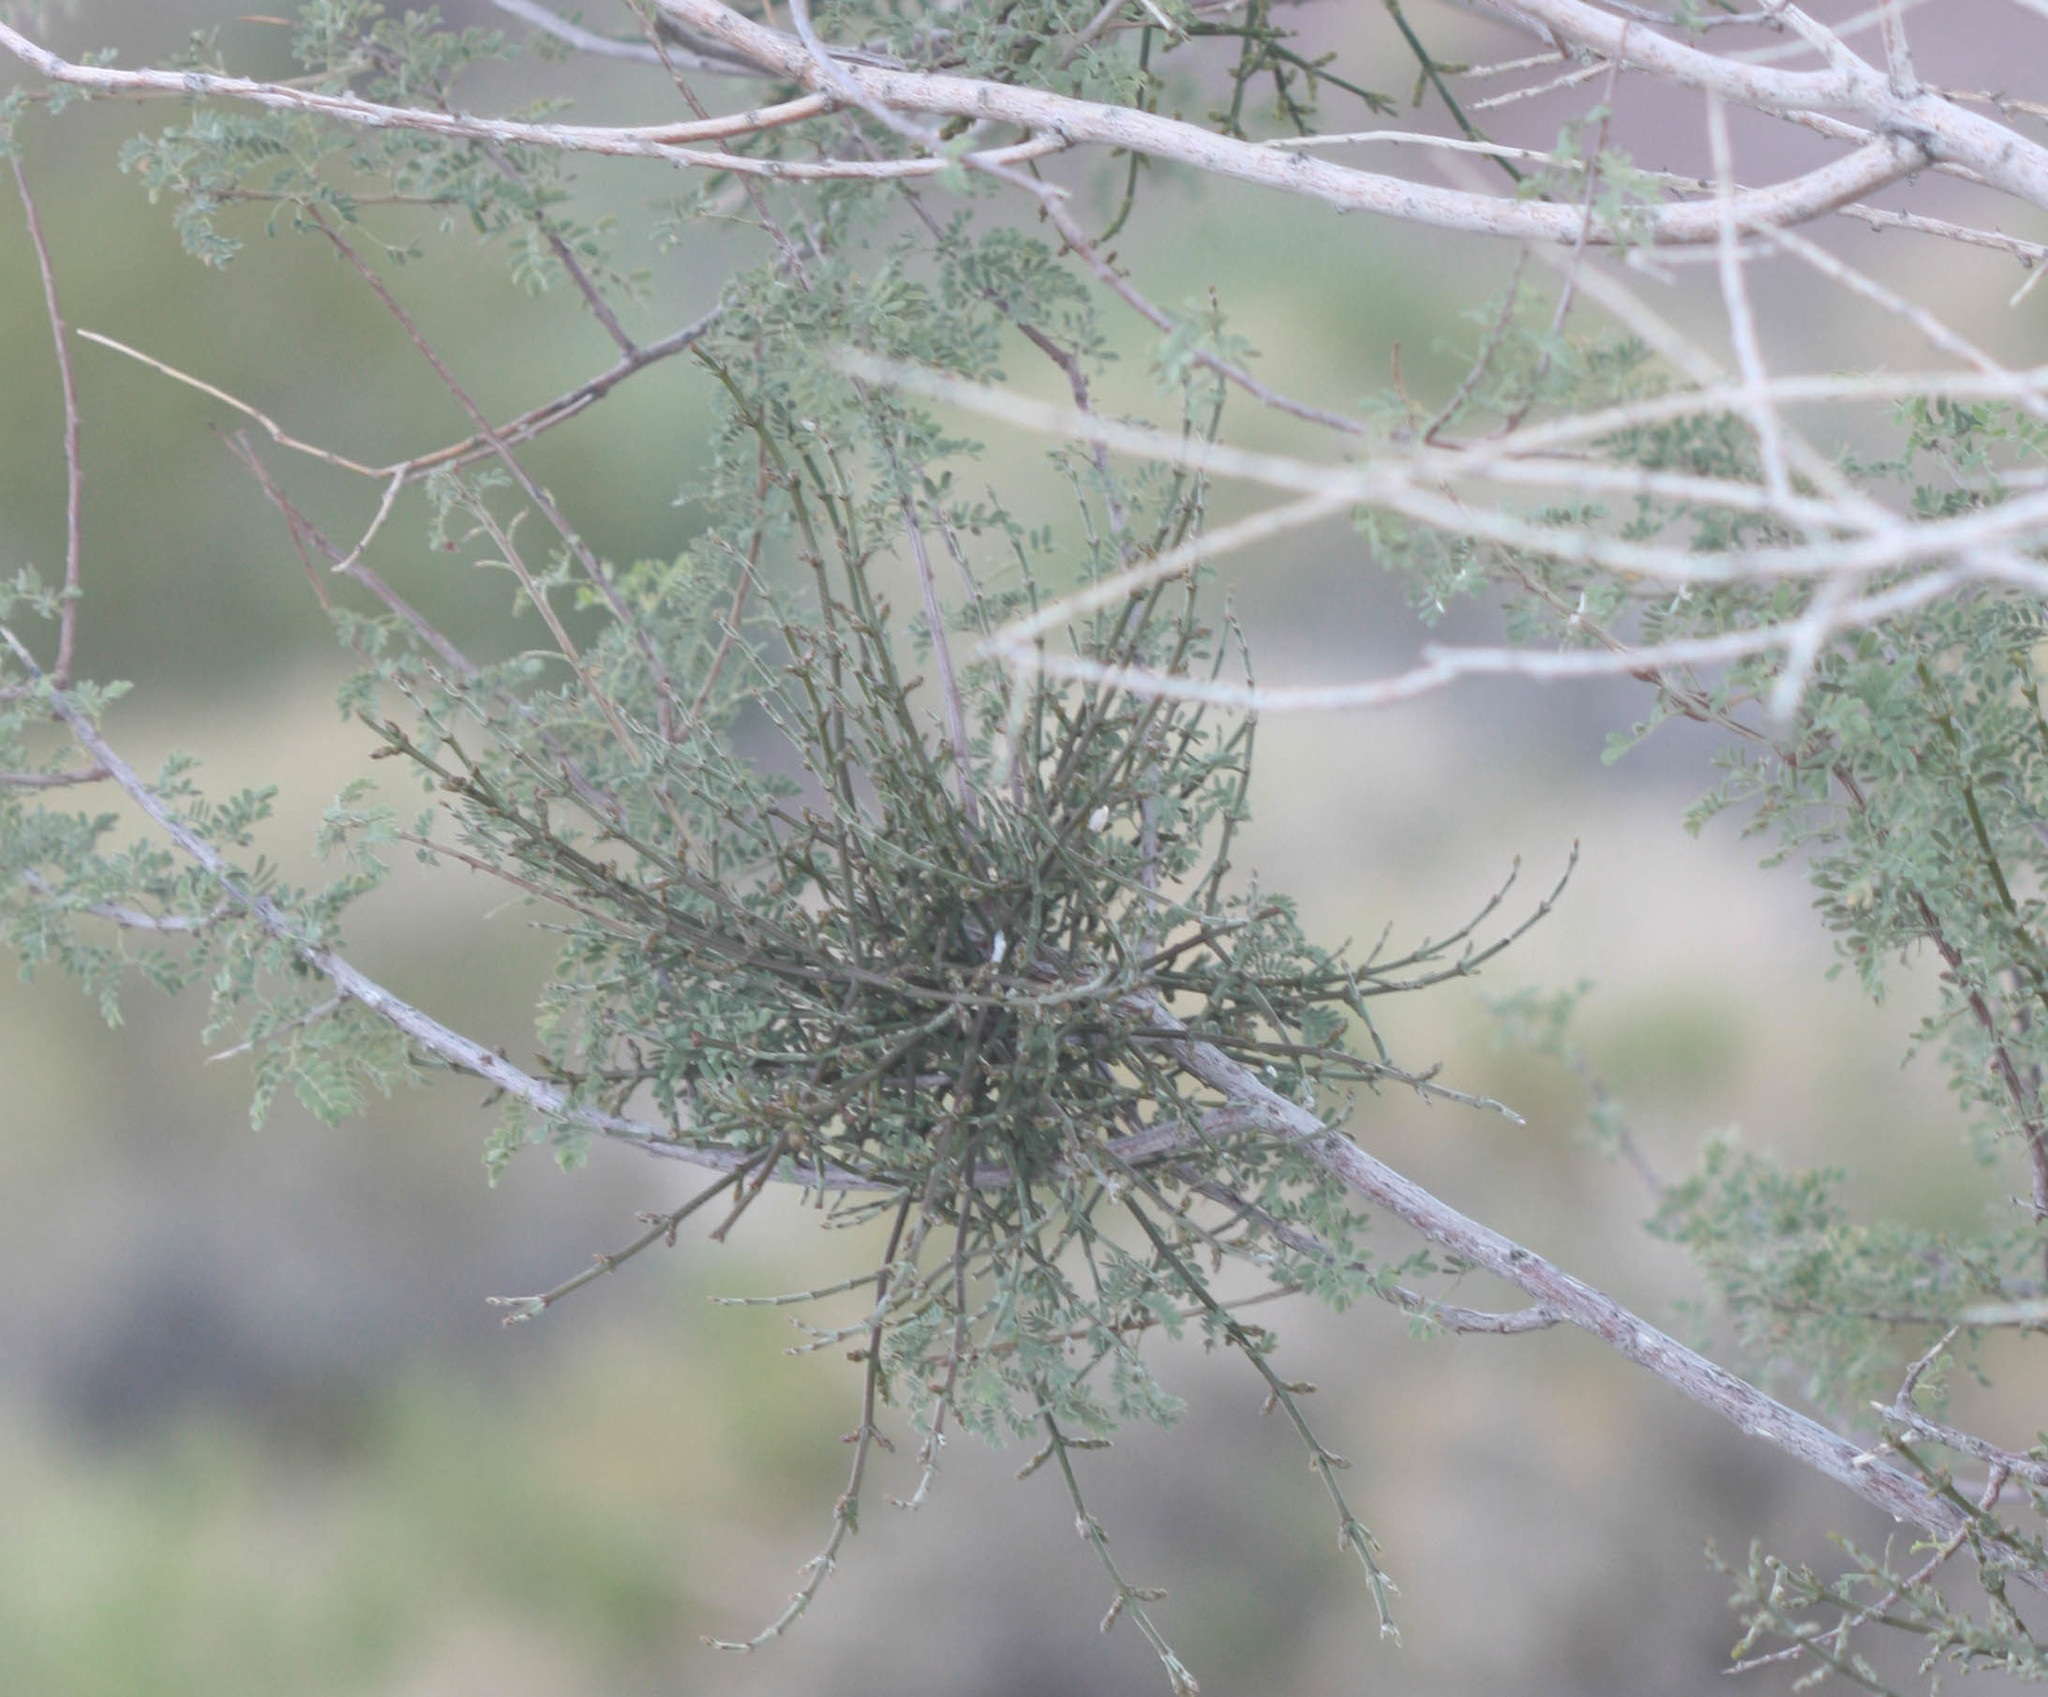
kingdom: Plantae
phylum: Tracheophyta
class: Magnoliopsida
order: Santalales
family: Viscaceae
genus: Phoradendron
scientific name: Phoradendron californicum
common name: Acacia mistletoe
